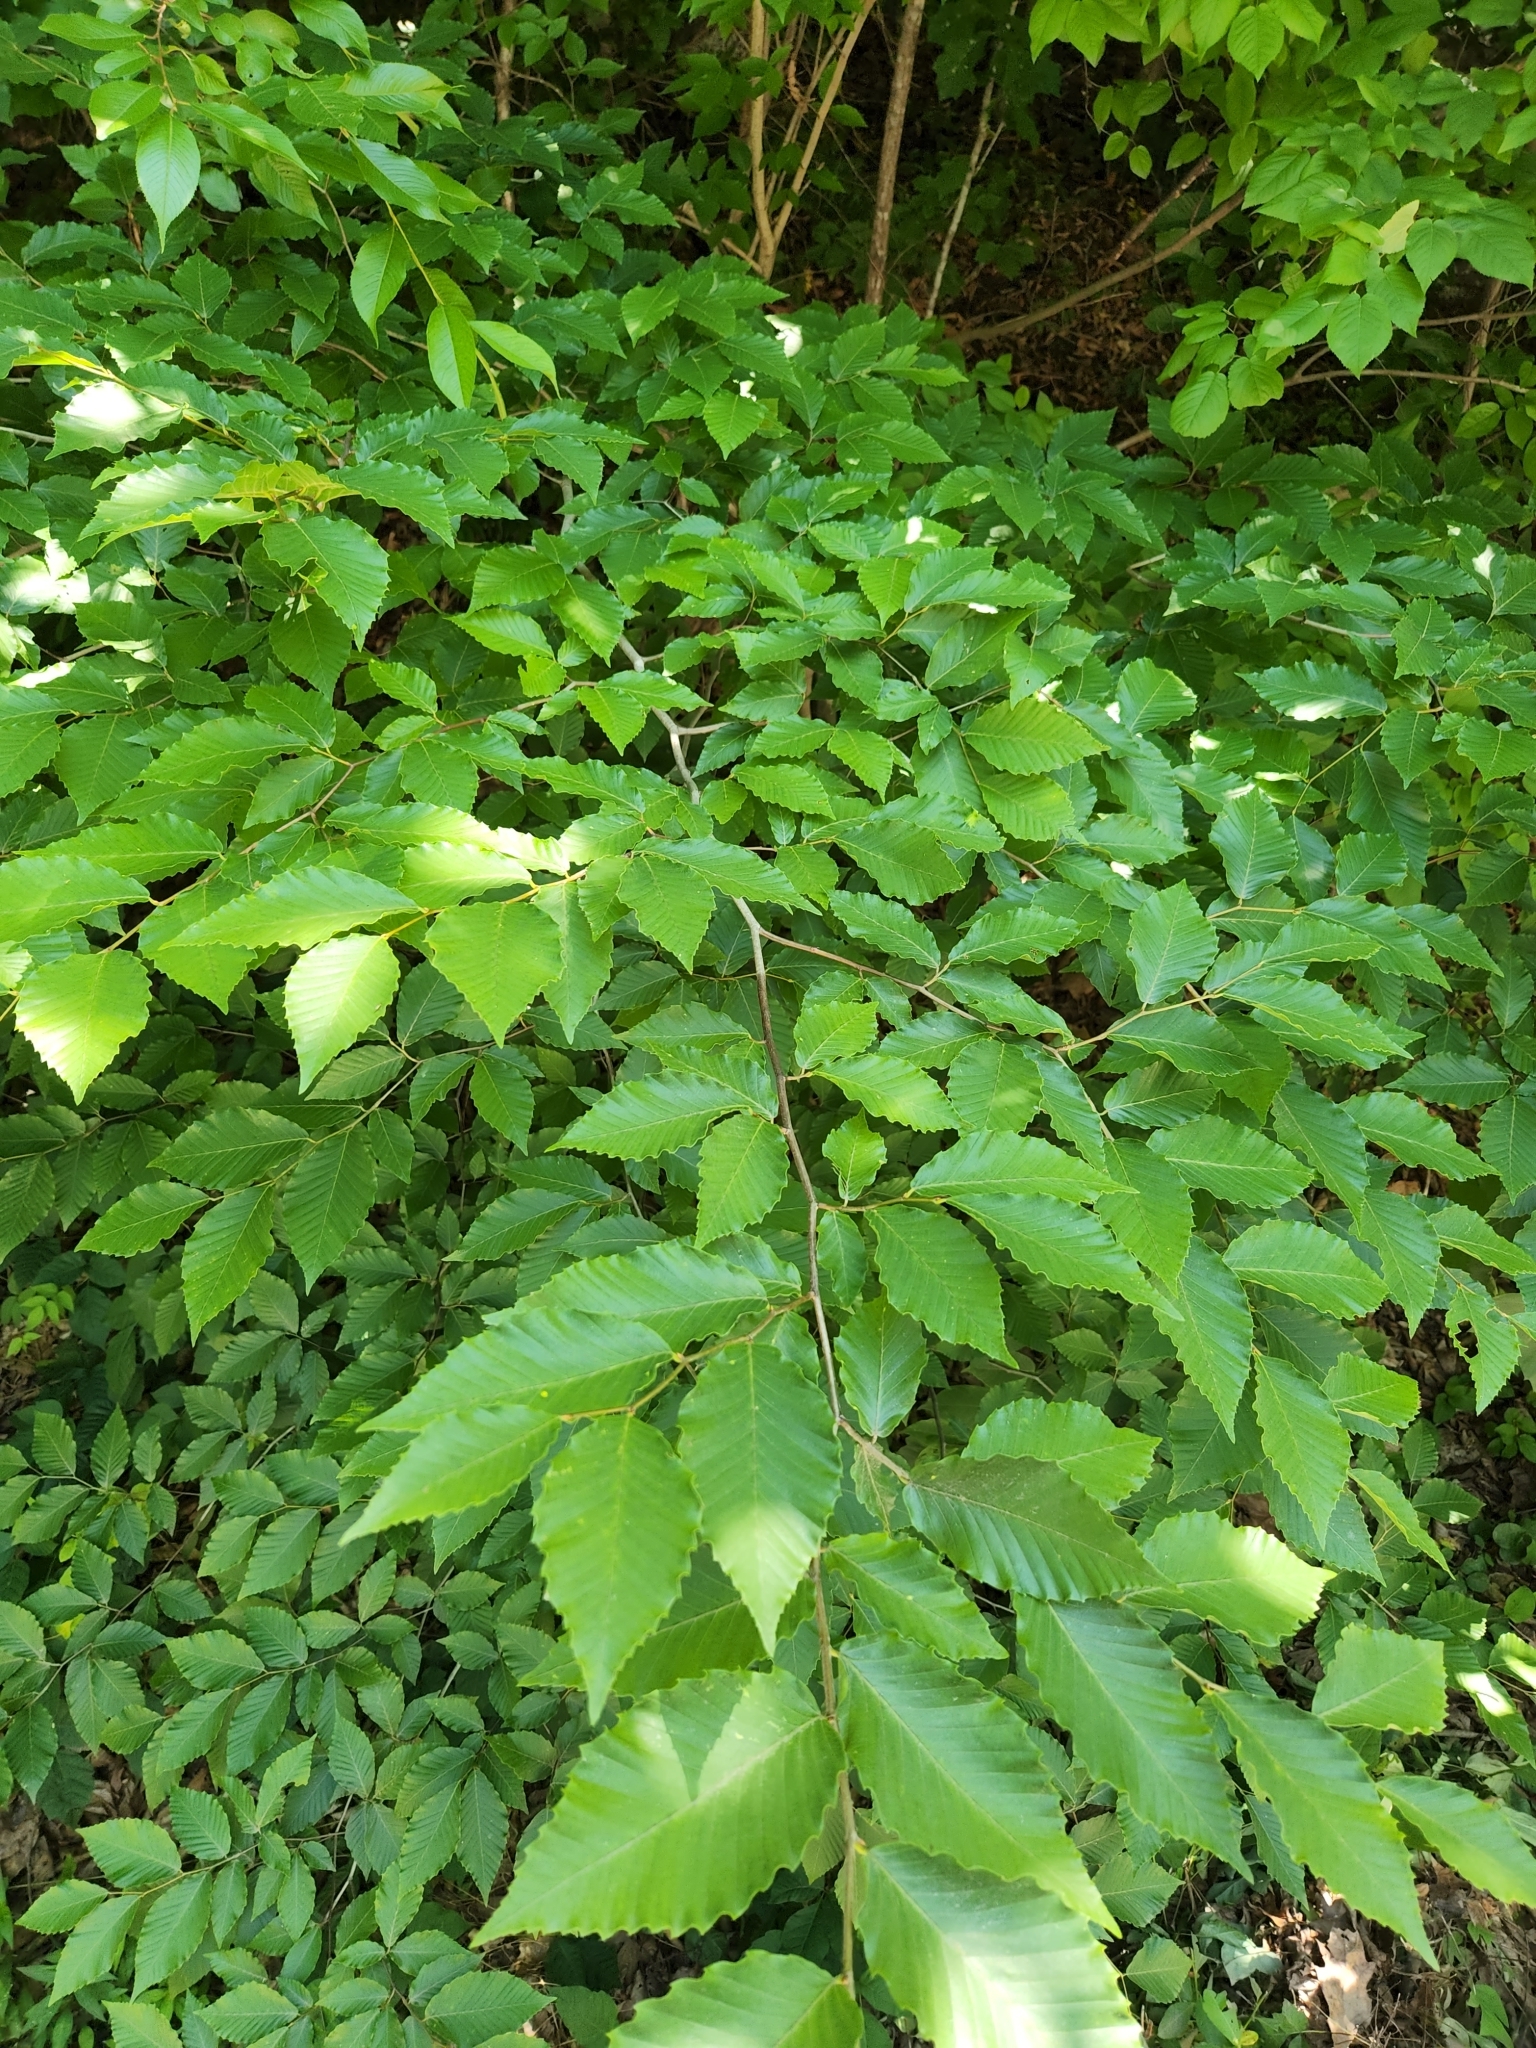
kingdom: Plantae
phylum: Tracheophyta
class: Magnoliopsida
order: Fagales
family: Fagaceae
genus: Fagus
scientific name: Fagus grandifolia
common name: American beech
